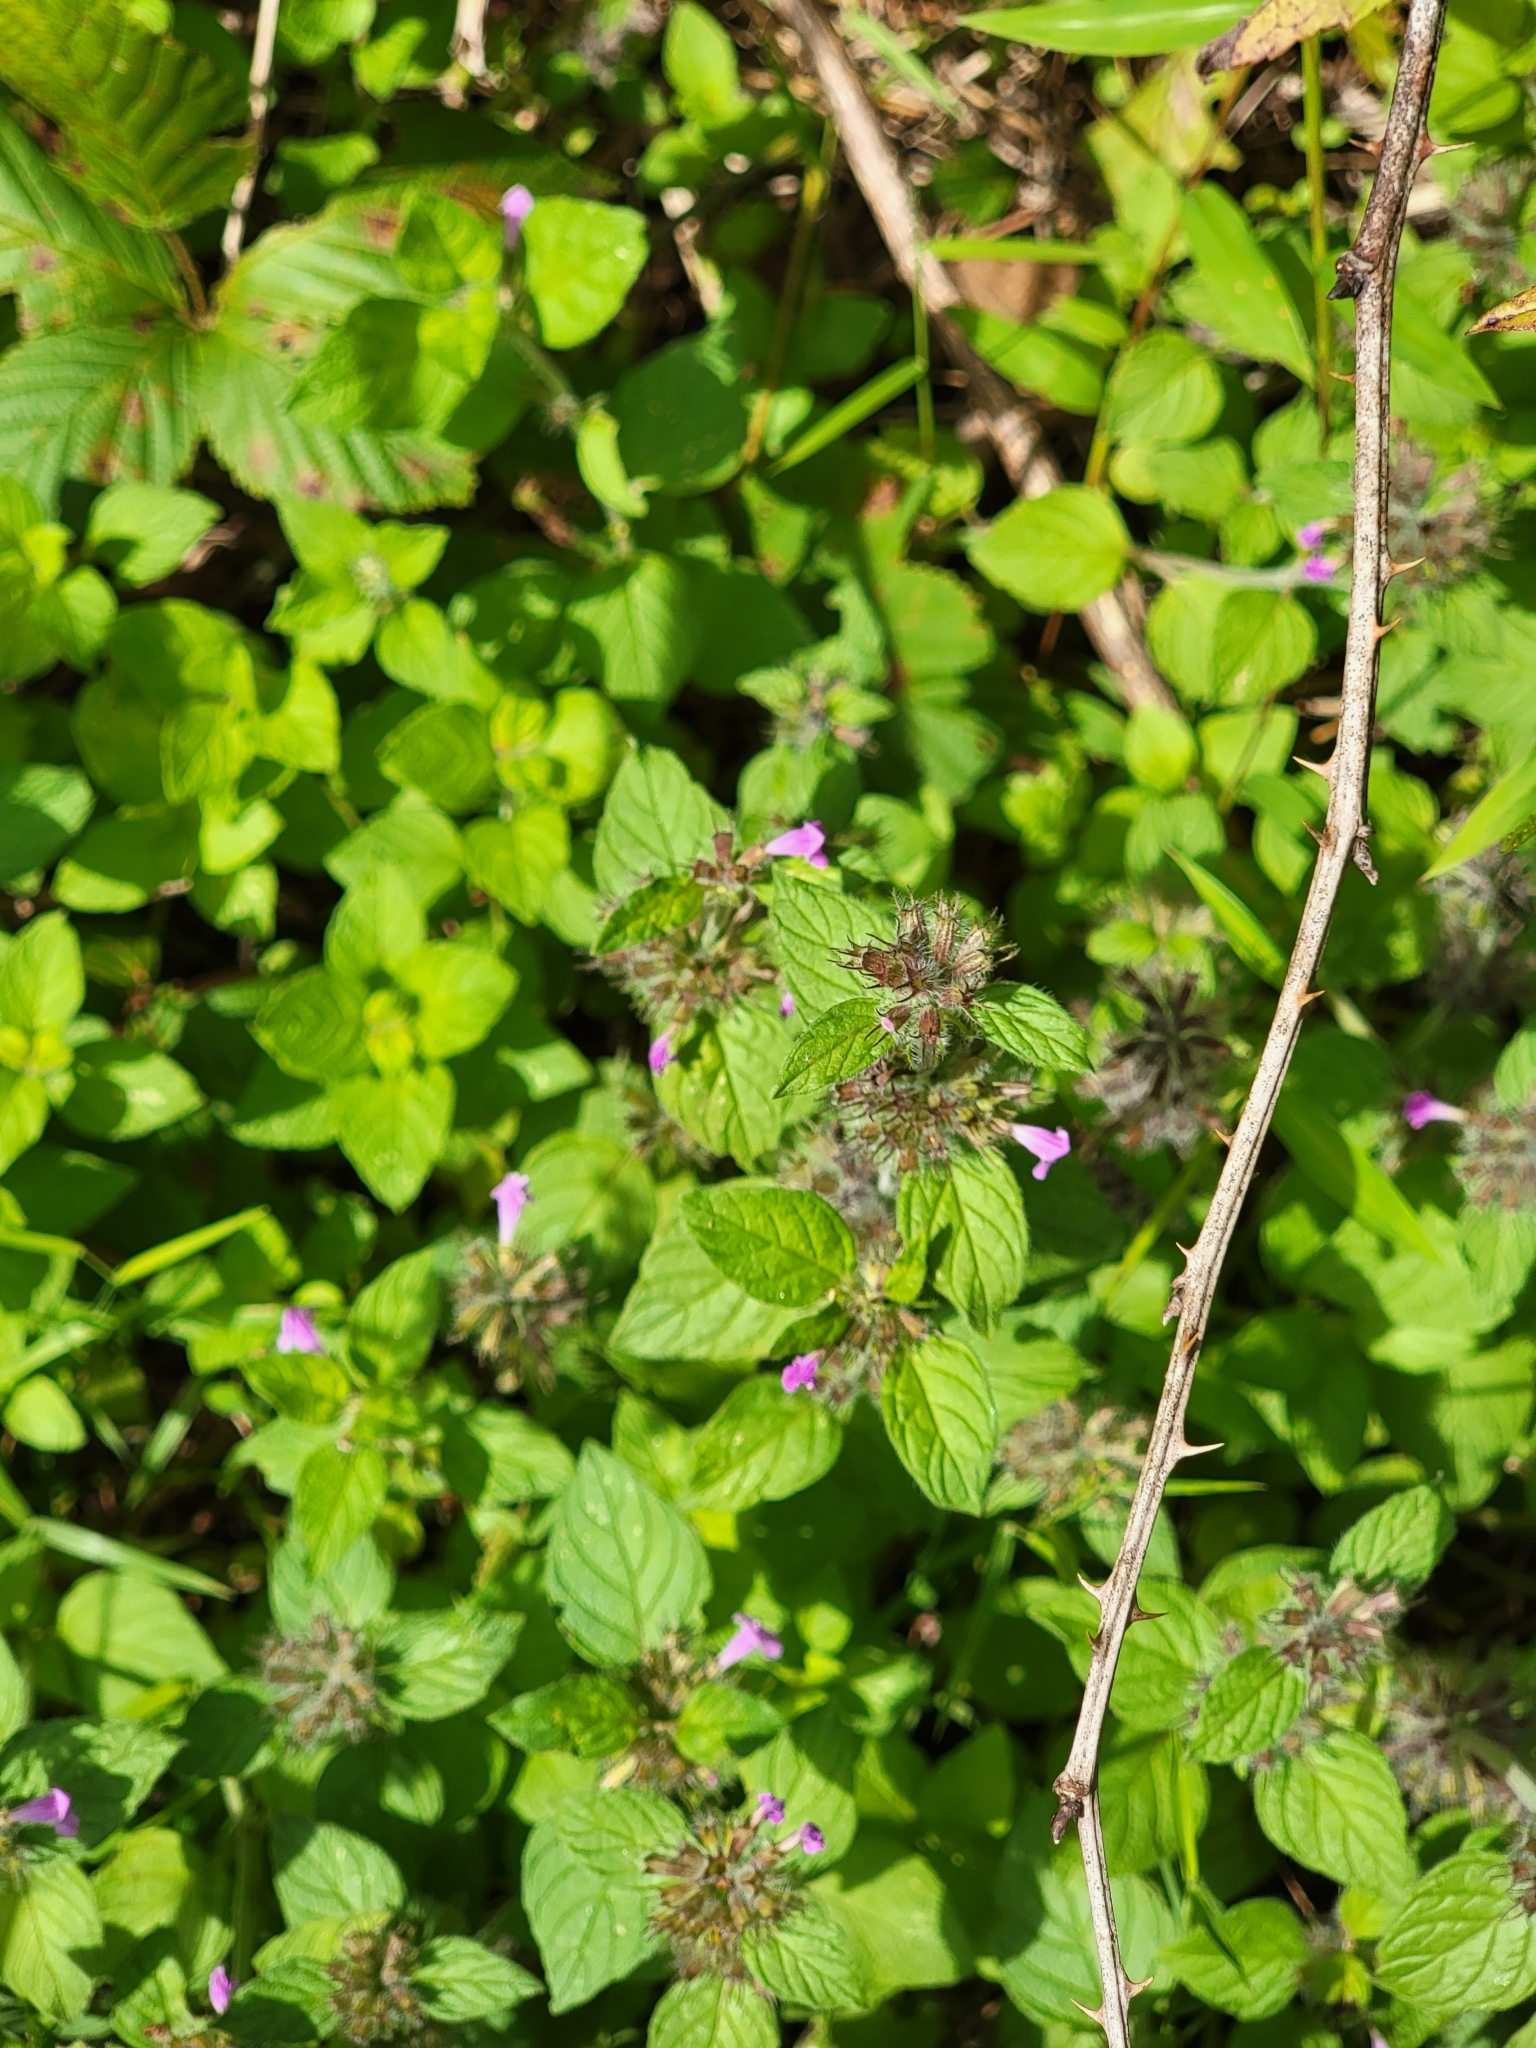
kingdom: Plantae
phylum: Tracheophyta
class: Magnoliopsida
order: Lamiales
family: Lamiaceae
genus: Clinopodium
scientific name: Clinopodium vulgare
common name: Wild basil
